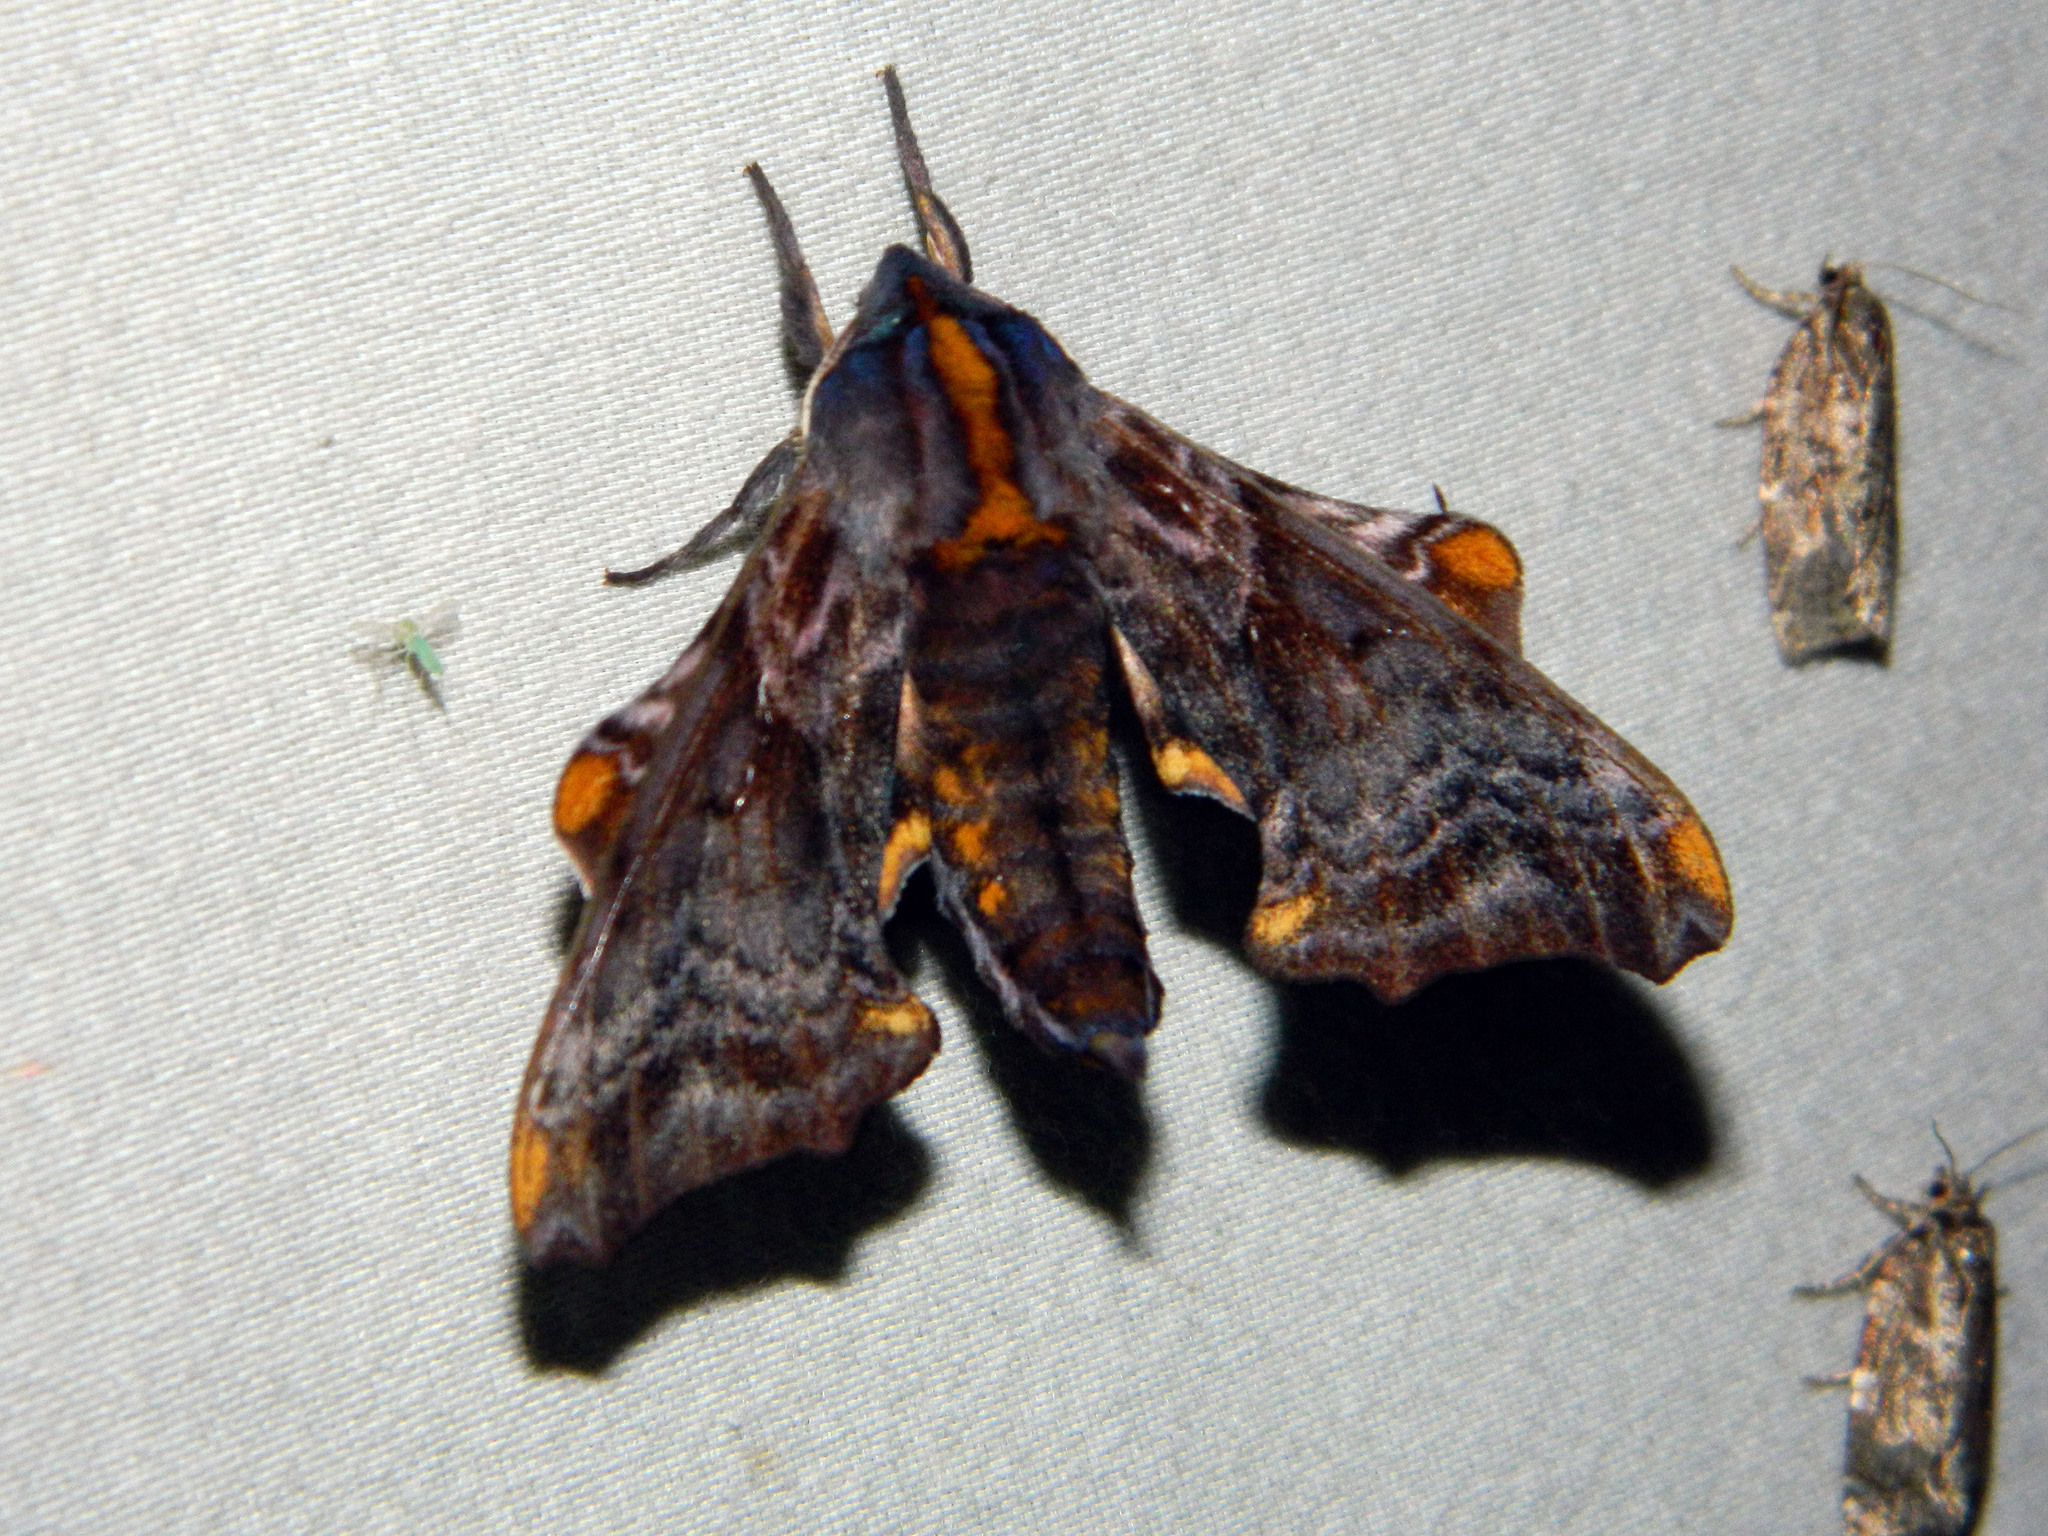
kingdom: Animalia
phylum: Arthropoda
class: Insecta
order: Lepidoptera
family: Sphingidae
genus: Paonias
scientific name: Paonias myops
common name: Small-eyed sphinx
